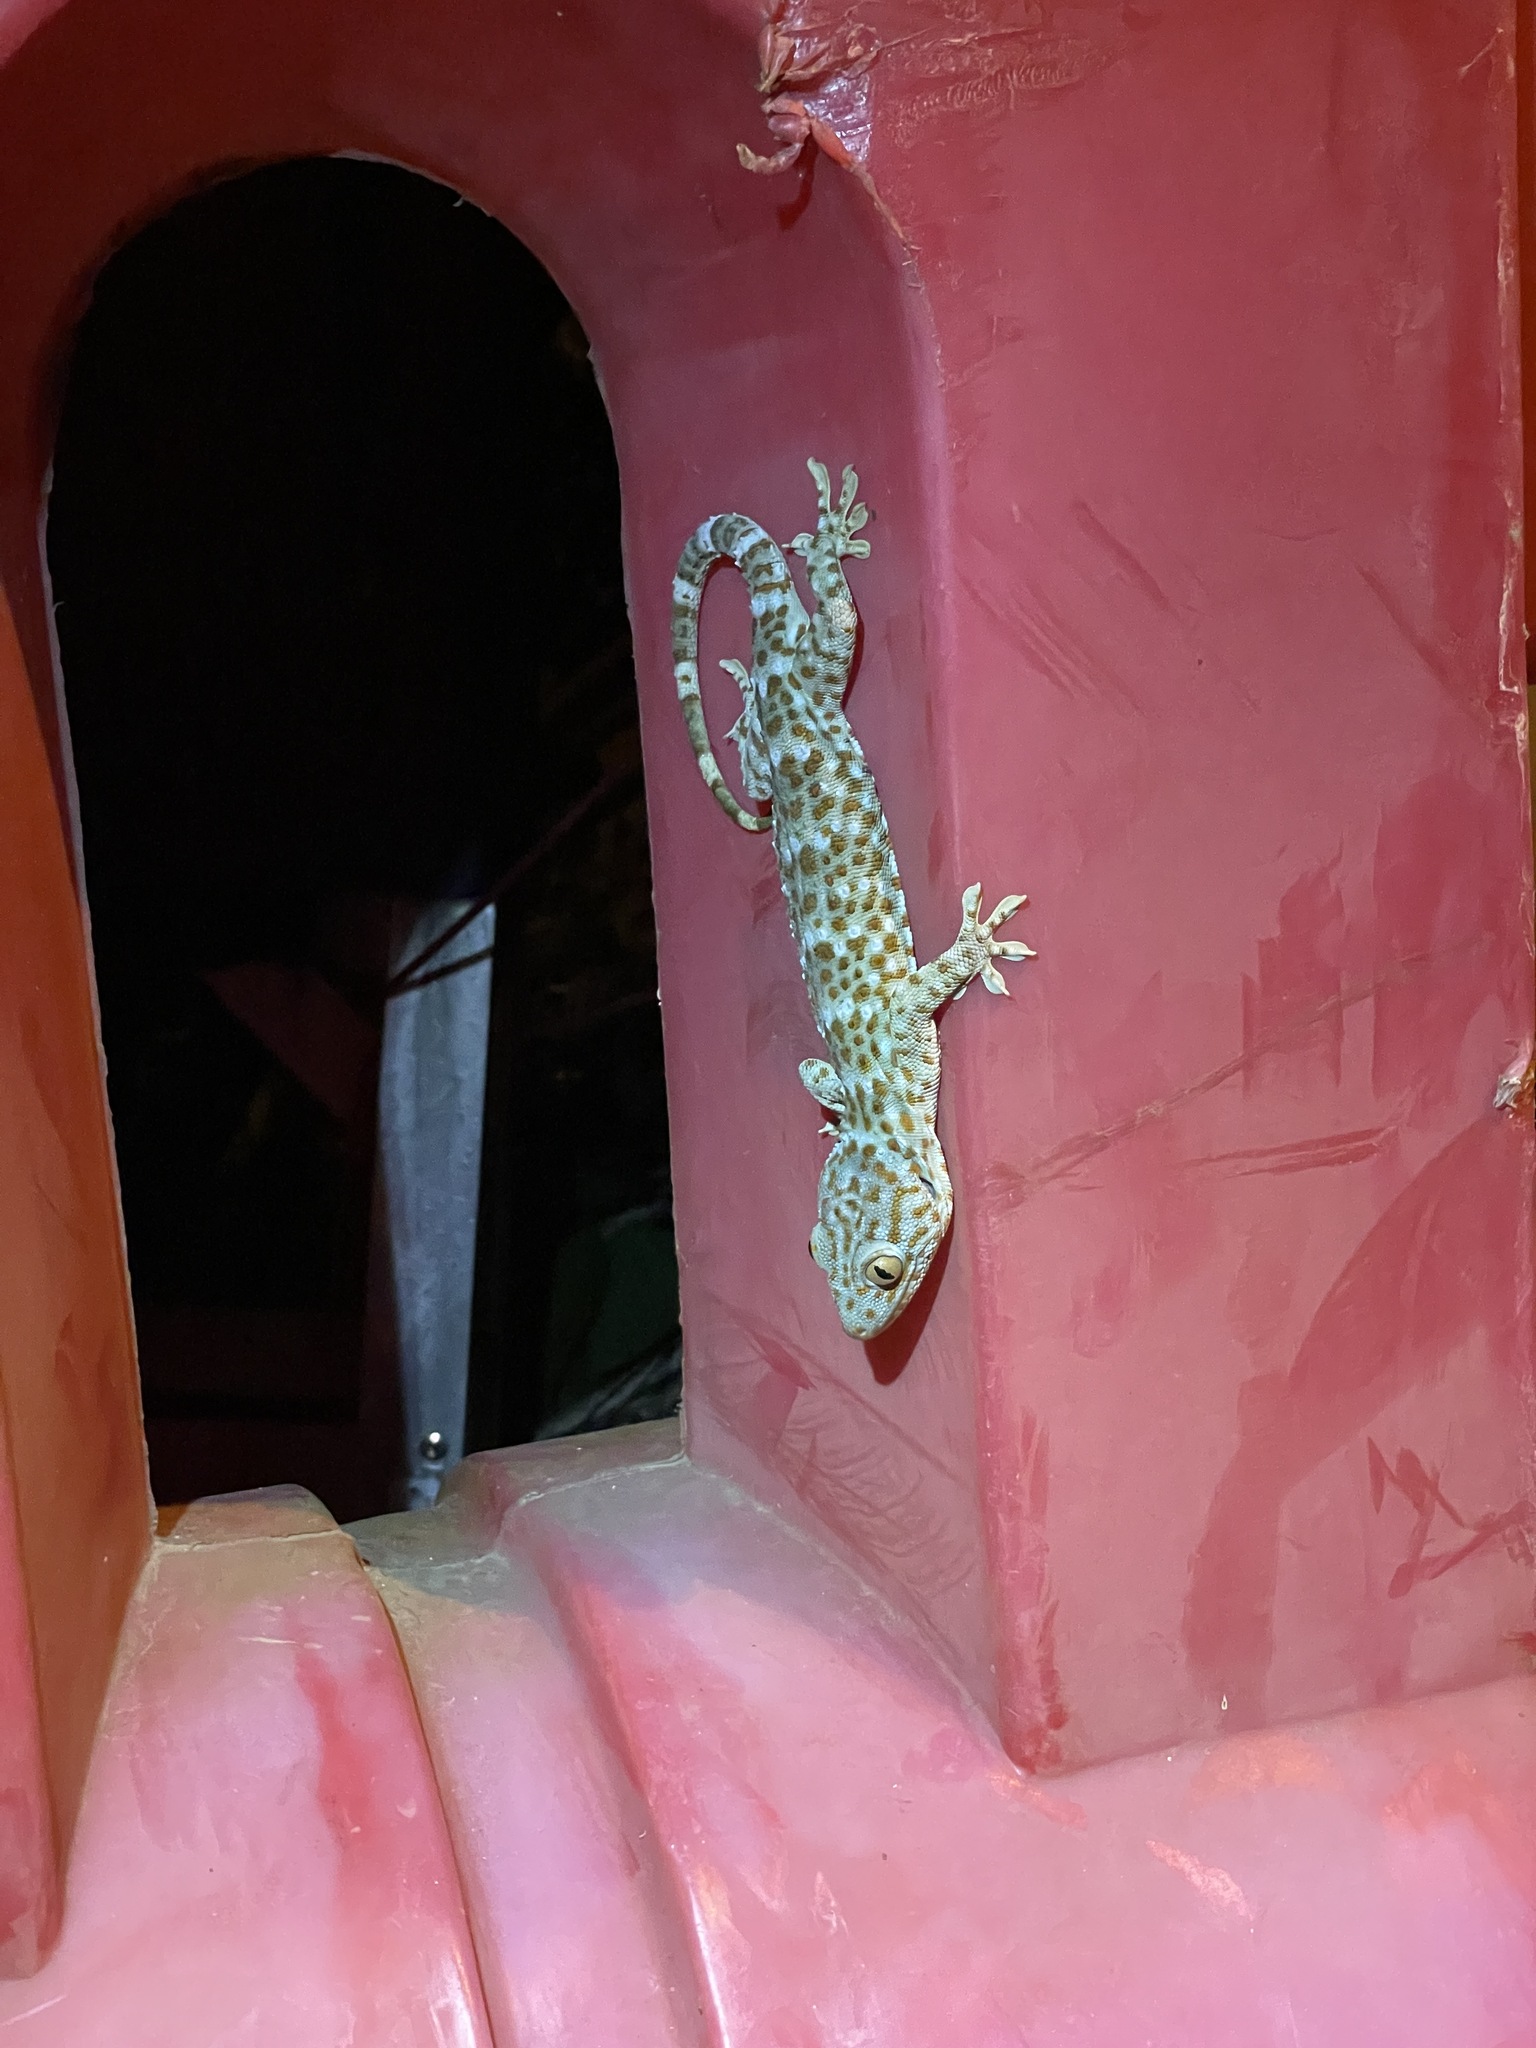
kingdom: Animalia
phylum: Chordata
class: Squamata
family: Gekkonidae
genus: Gekko
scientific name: Gekko gecko
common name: Tokay gecko
